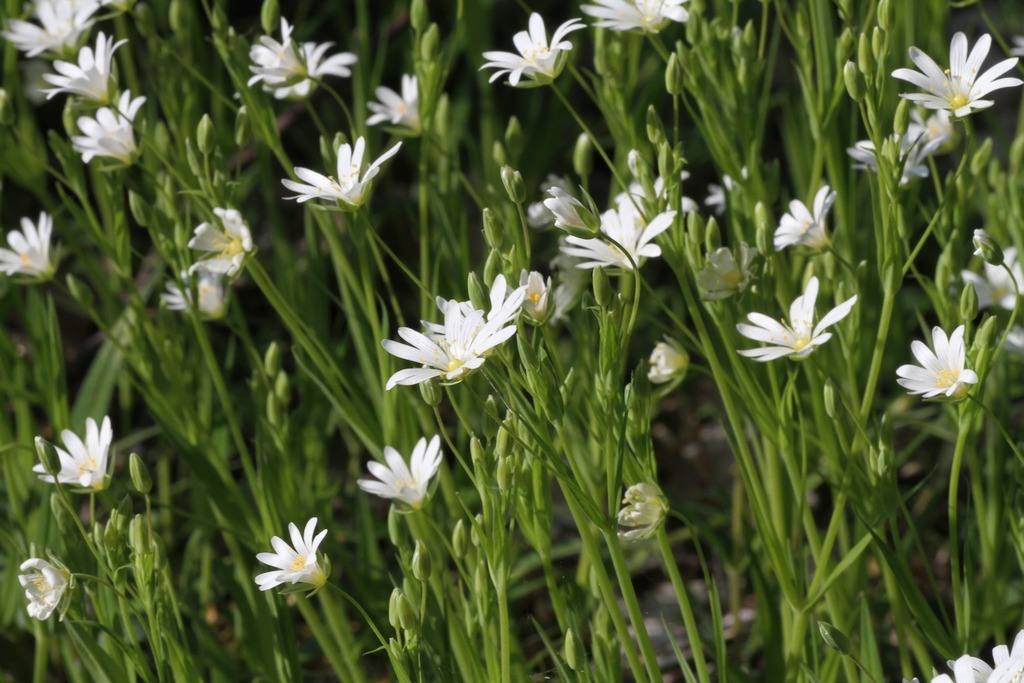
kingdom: Plantae
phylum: Tracheophyta
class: Magnoliopsida
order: Caryophyllales
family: Caryophyllaceae
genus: Rabelera
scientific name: Rabelera holostea
